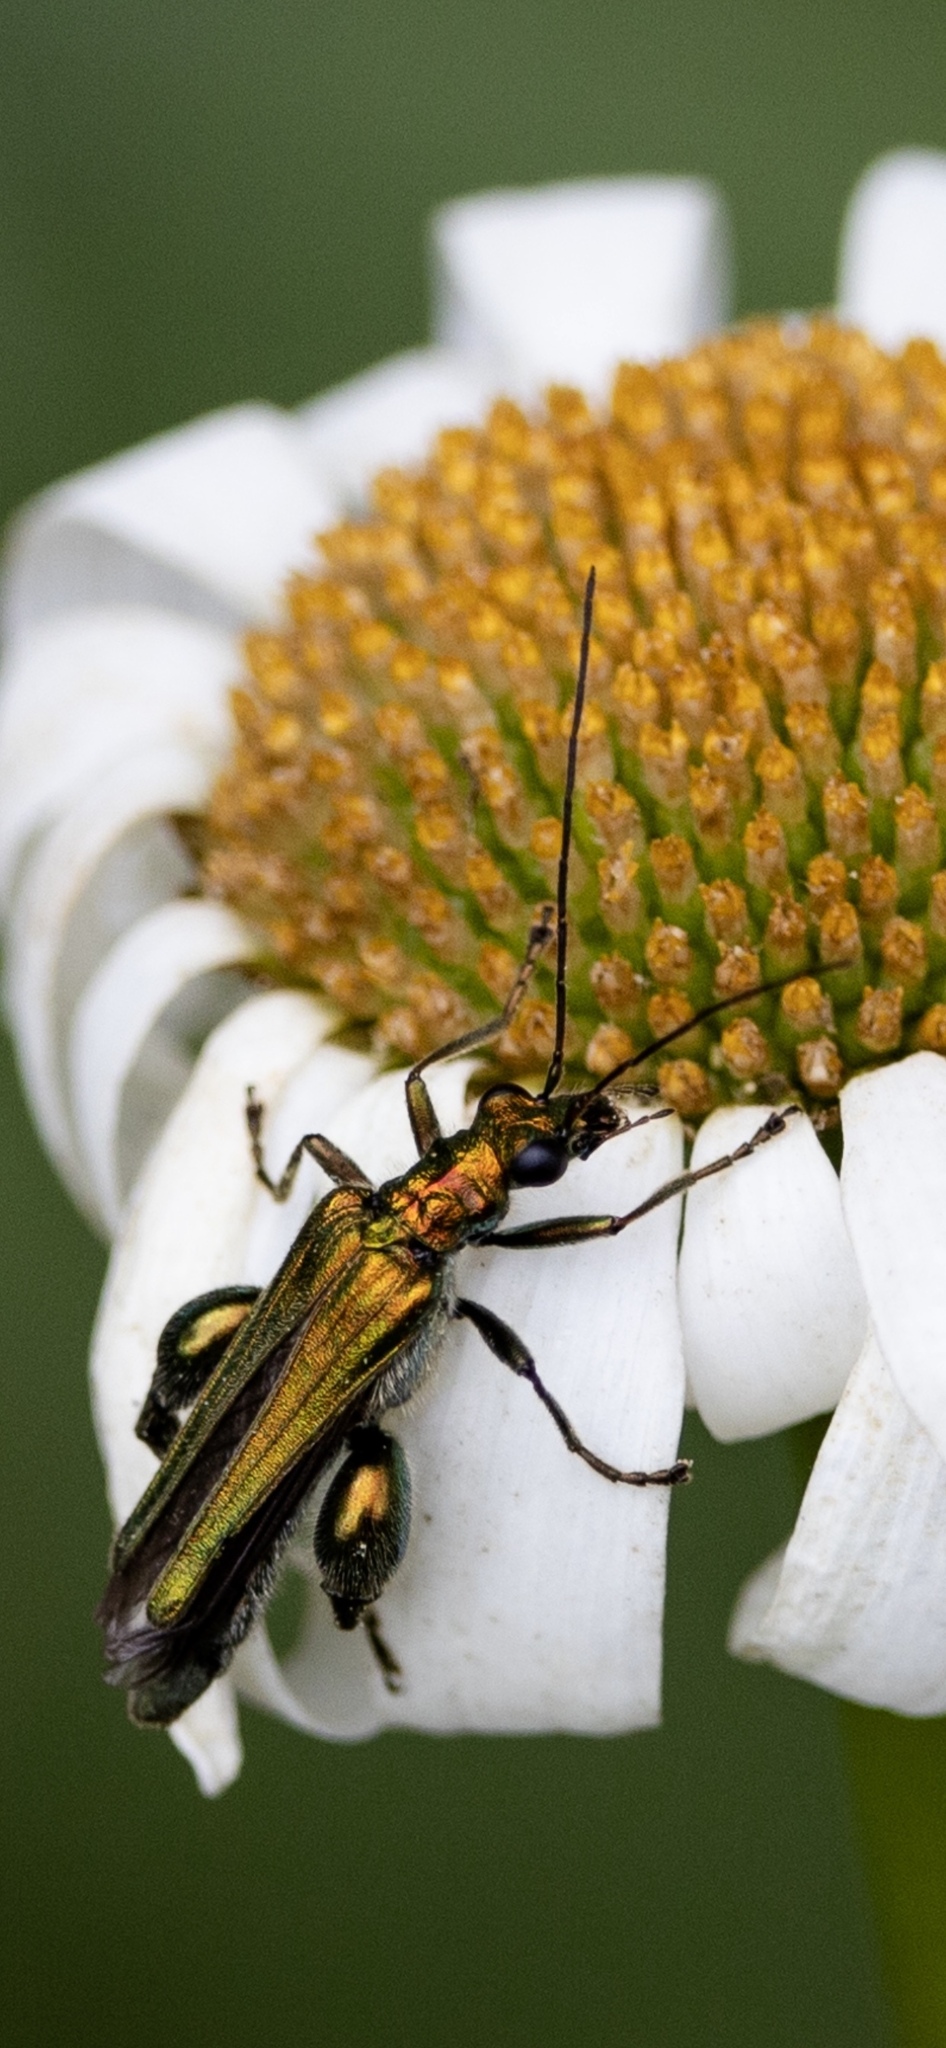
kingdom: Animalia
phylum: Arthropoda
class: Insecta
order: Coleoptera
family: Oedemeridae
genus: Oedemera
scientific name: Oedemera nobilis
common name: Swollen-thighed beetle
